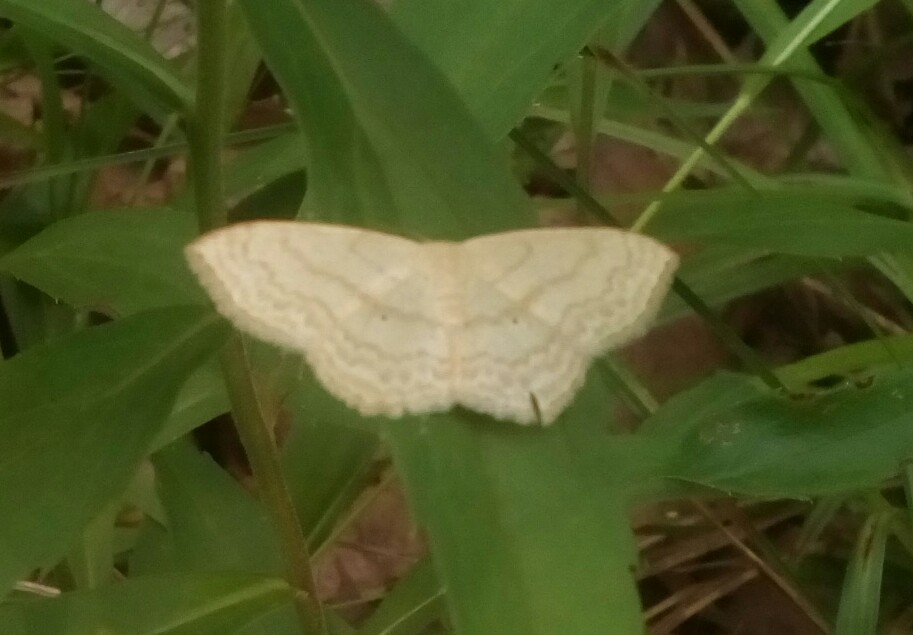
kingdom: Animalia
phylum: Arthropoda
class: Insecta
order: Lepidoptera
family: Geometridae
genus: Scopula
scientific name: Scopula limboundata
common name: Large lace border
